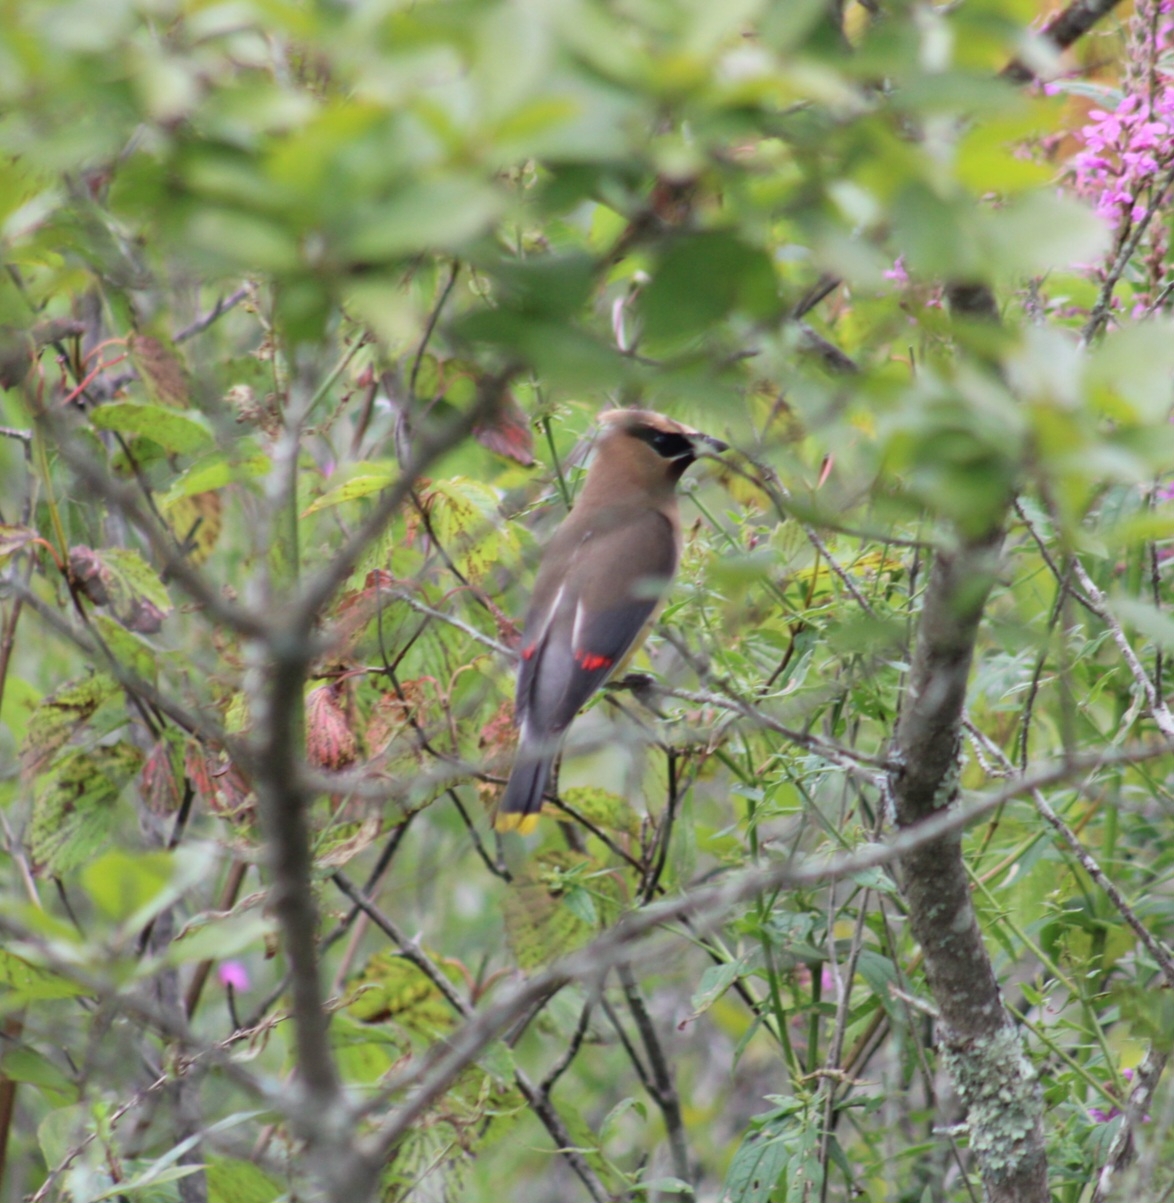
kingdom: Animalia
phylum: Chordata
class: Aves
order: Passeriformes
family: Bombycillidae
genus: Bombycilla
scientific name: Bombycilla cedrorum
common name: Cedar waxwing
